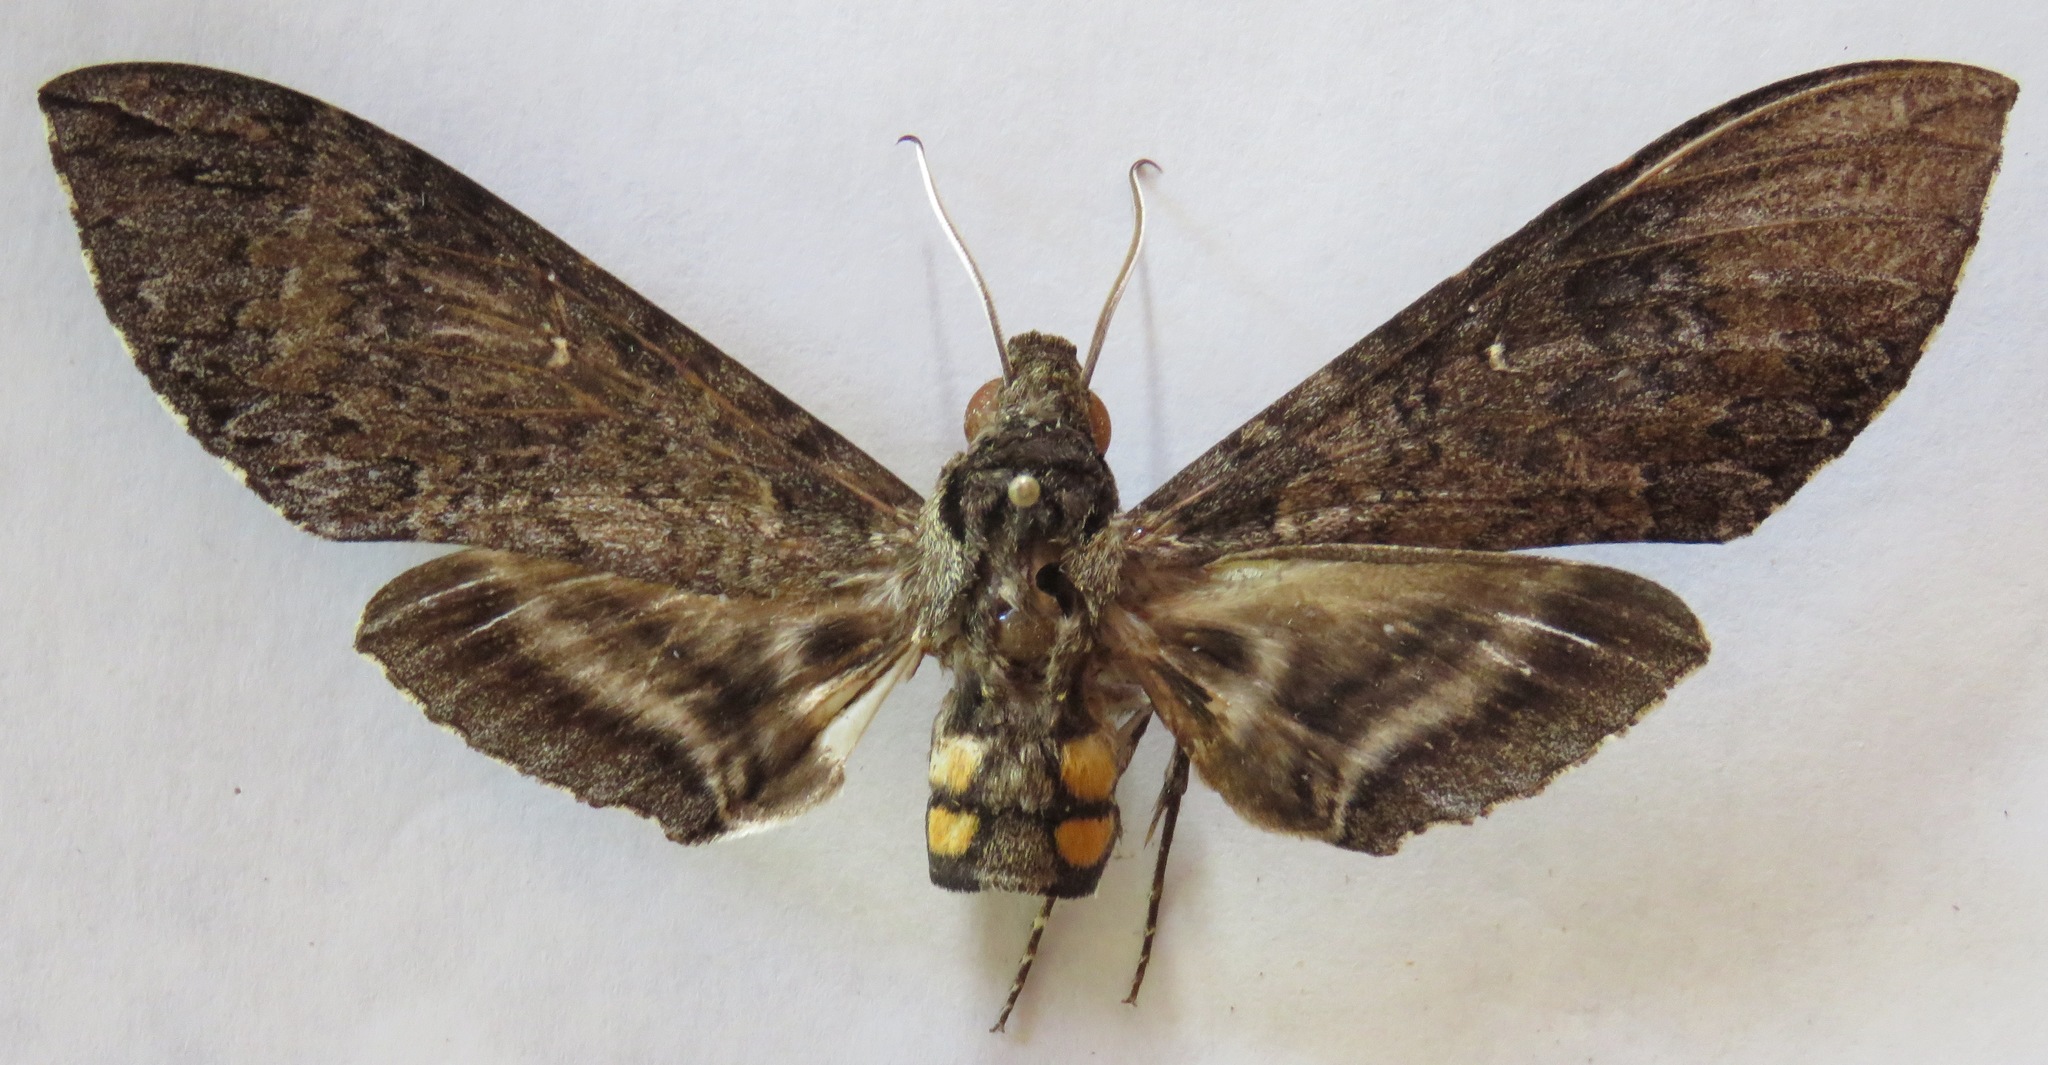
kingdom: Animalia
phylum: Arthropoda
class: Insecta
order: Lepidoptera
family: Sphingidae
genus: Manduca
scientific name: Manduca occulta
